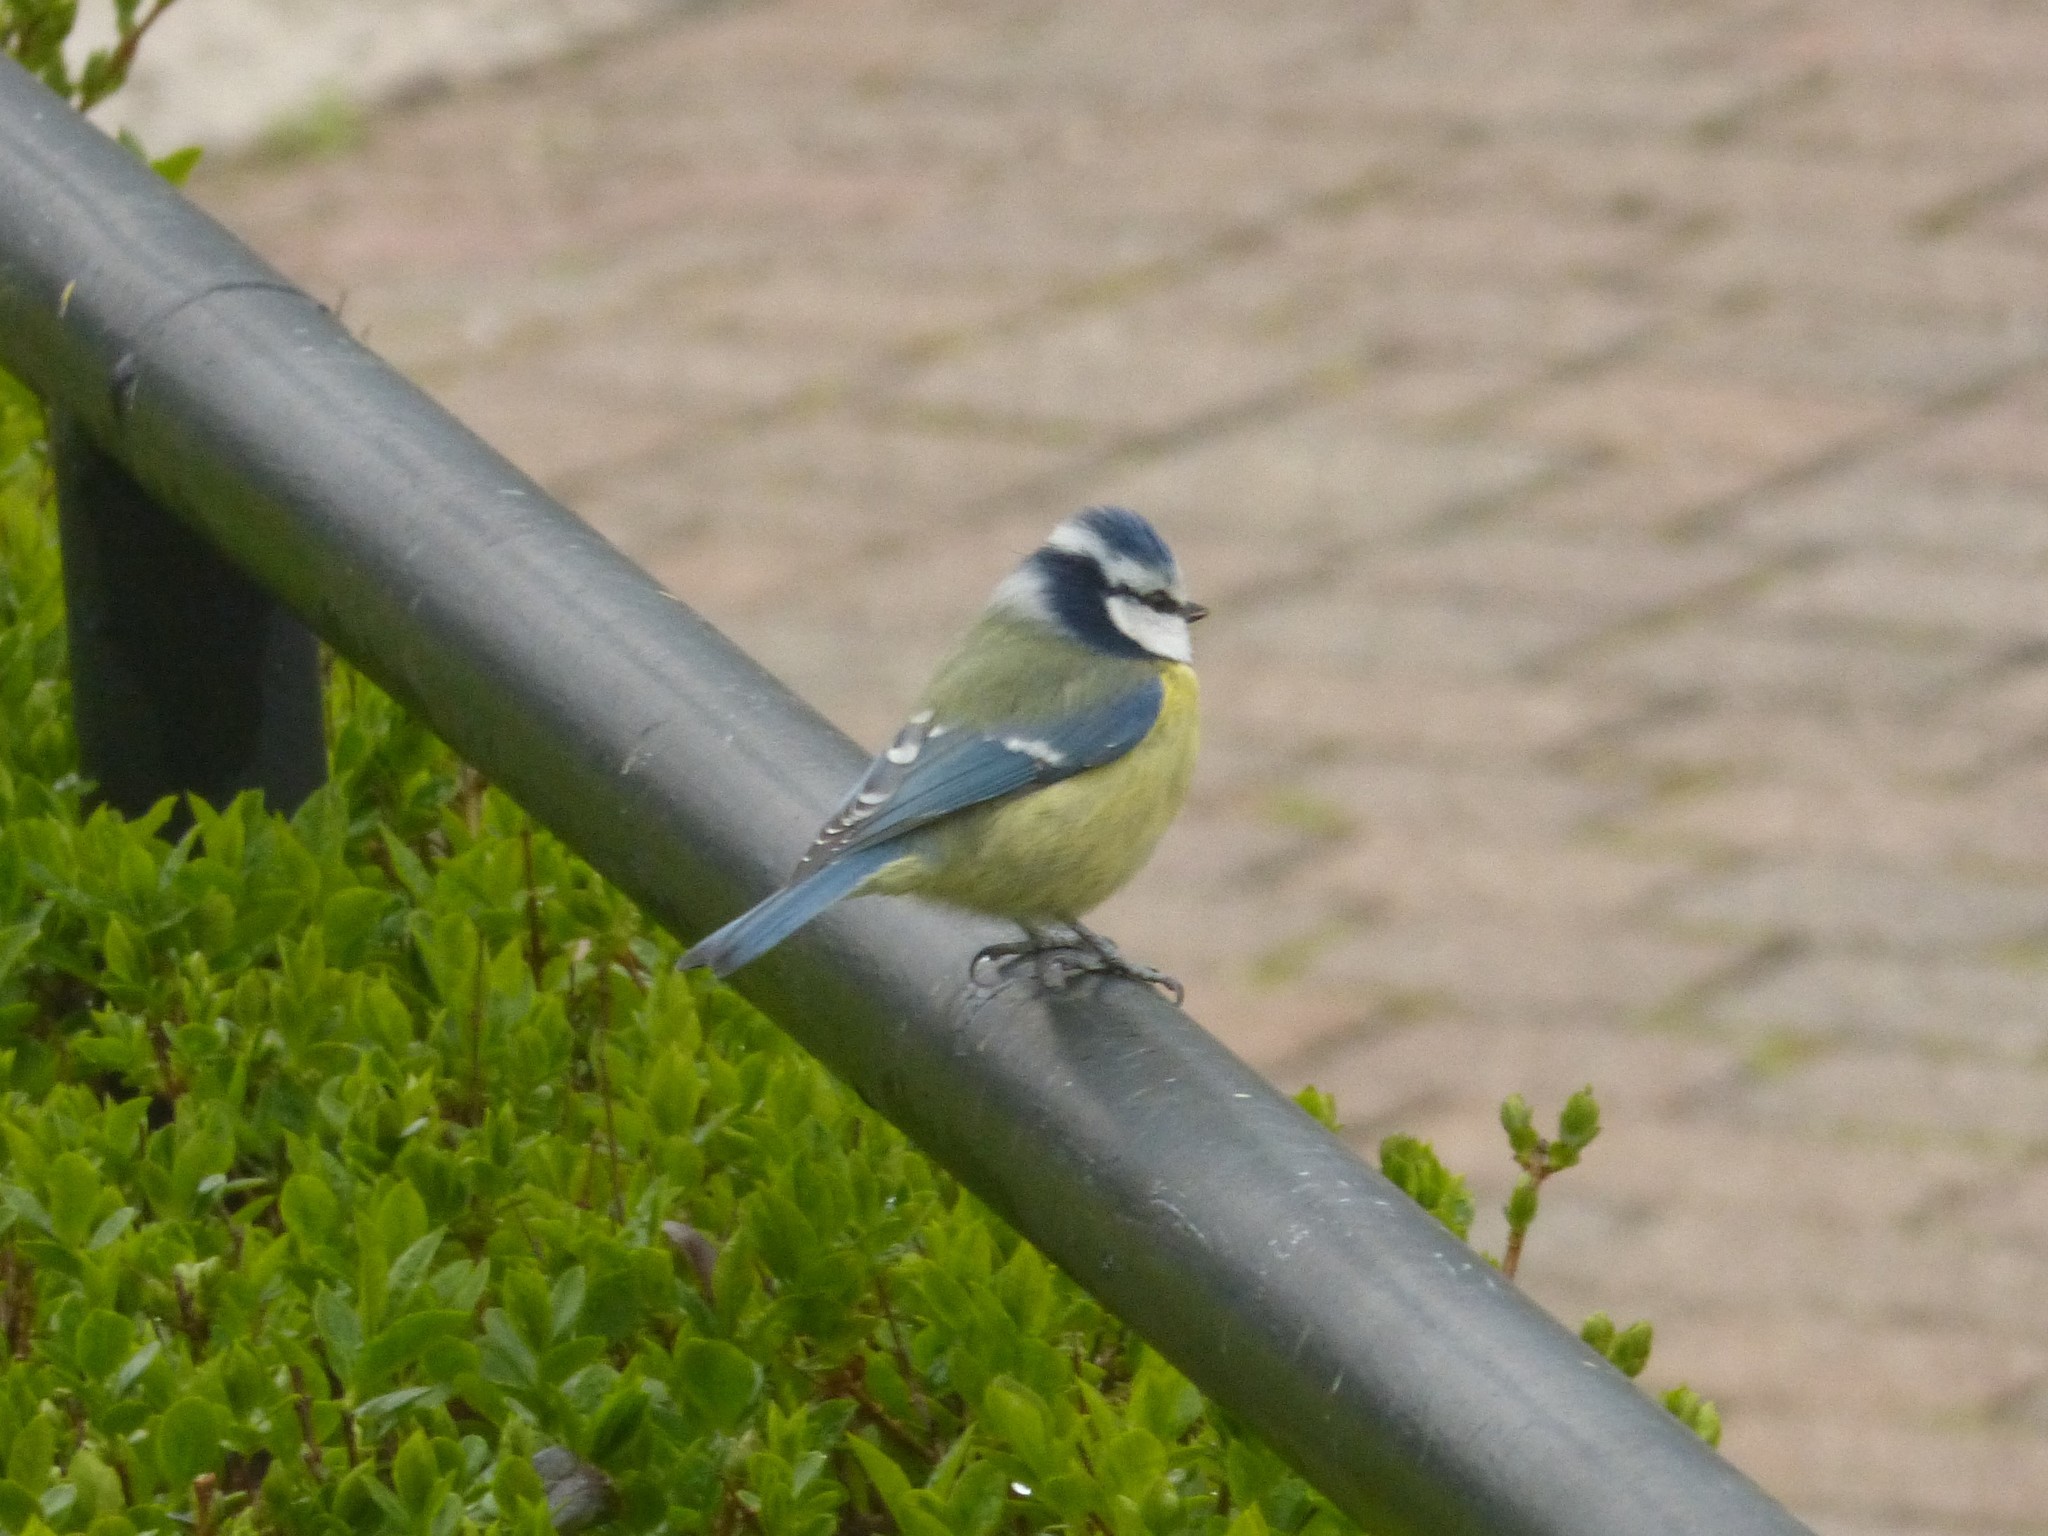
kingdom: Animalia
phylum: Chordata
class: Aves
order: Passeriformes
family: Paridae
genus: Cyanistes
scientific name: Cyanistes caeruleus
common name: Eurasian blue tit
